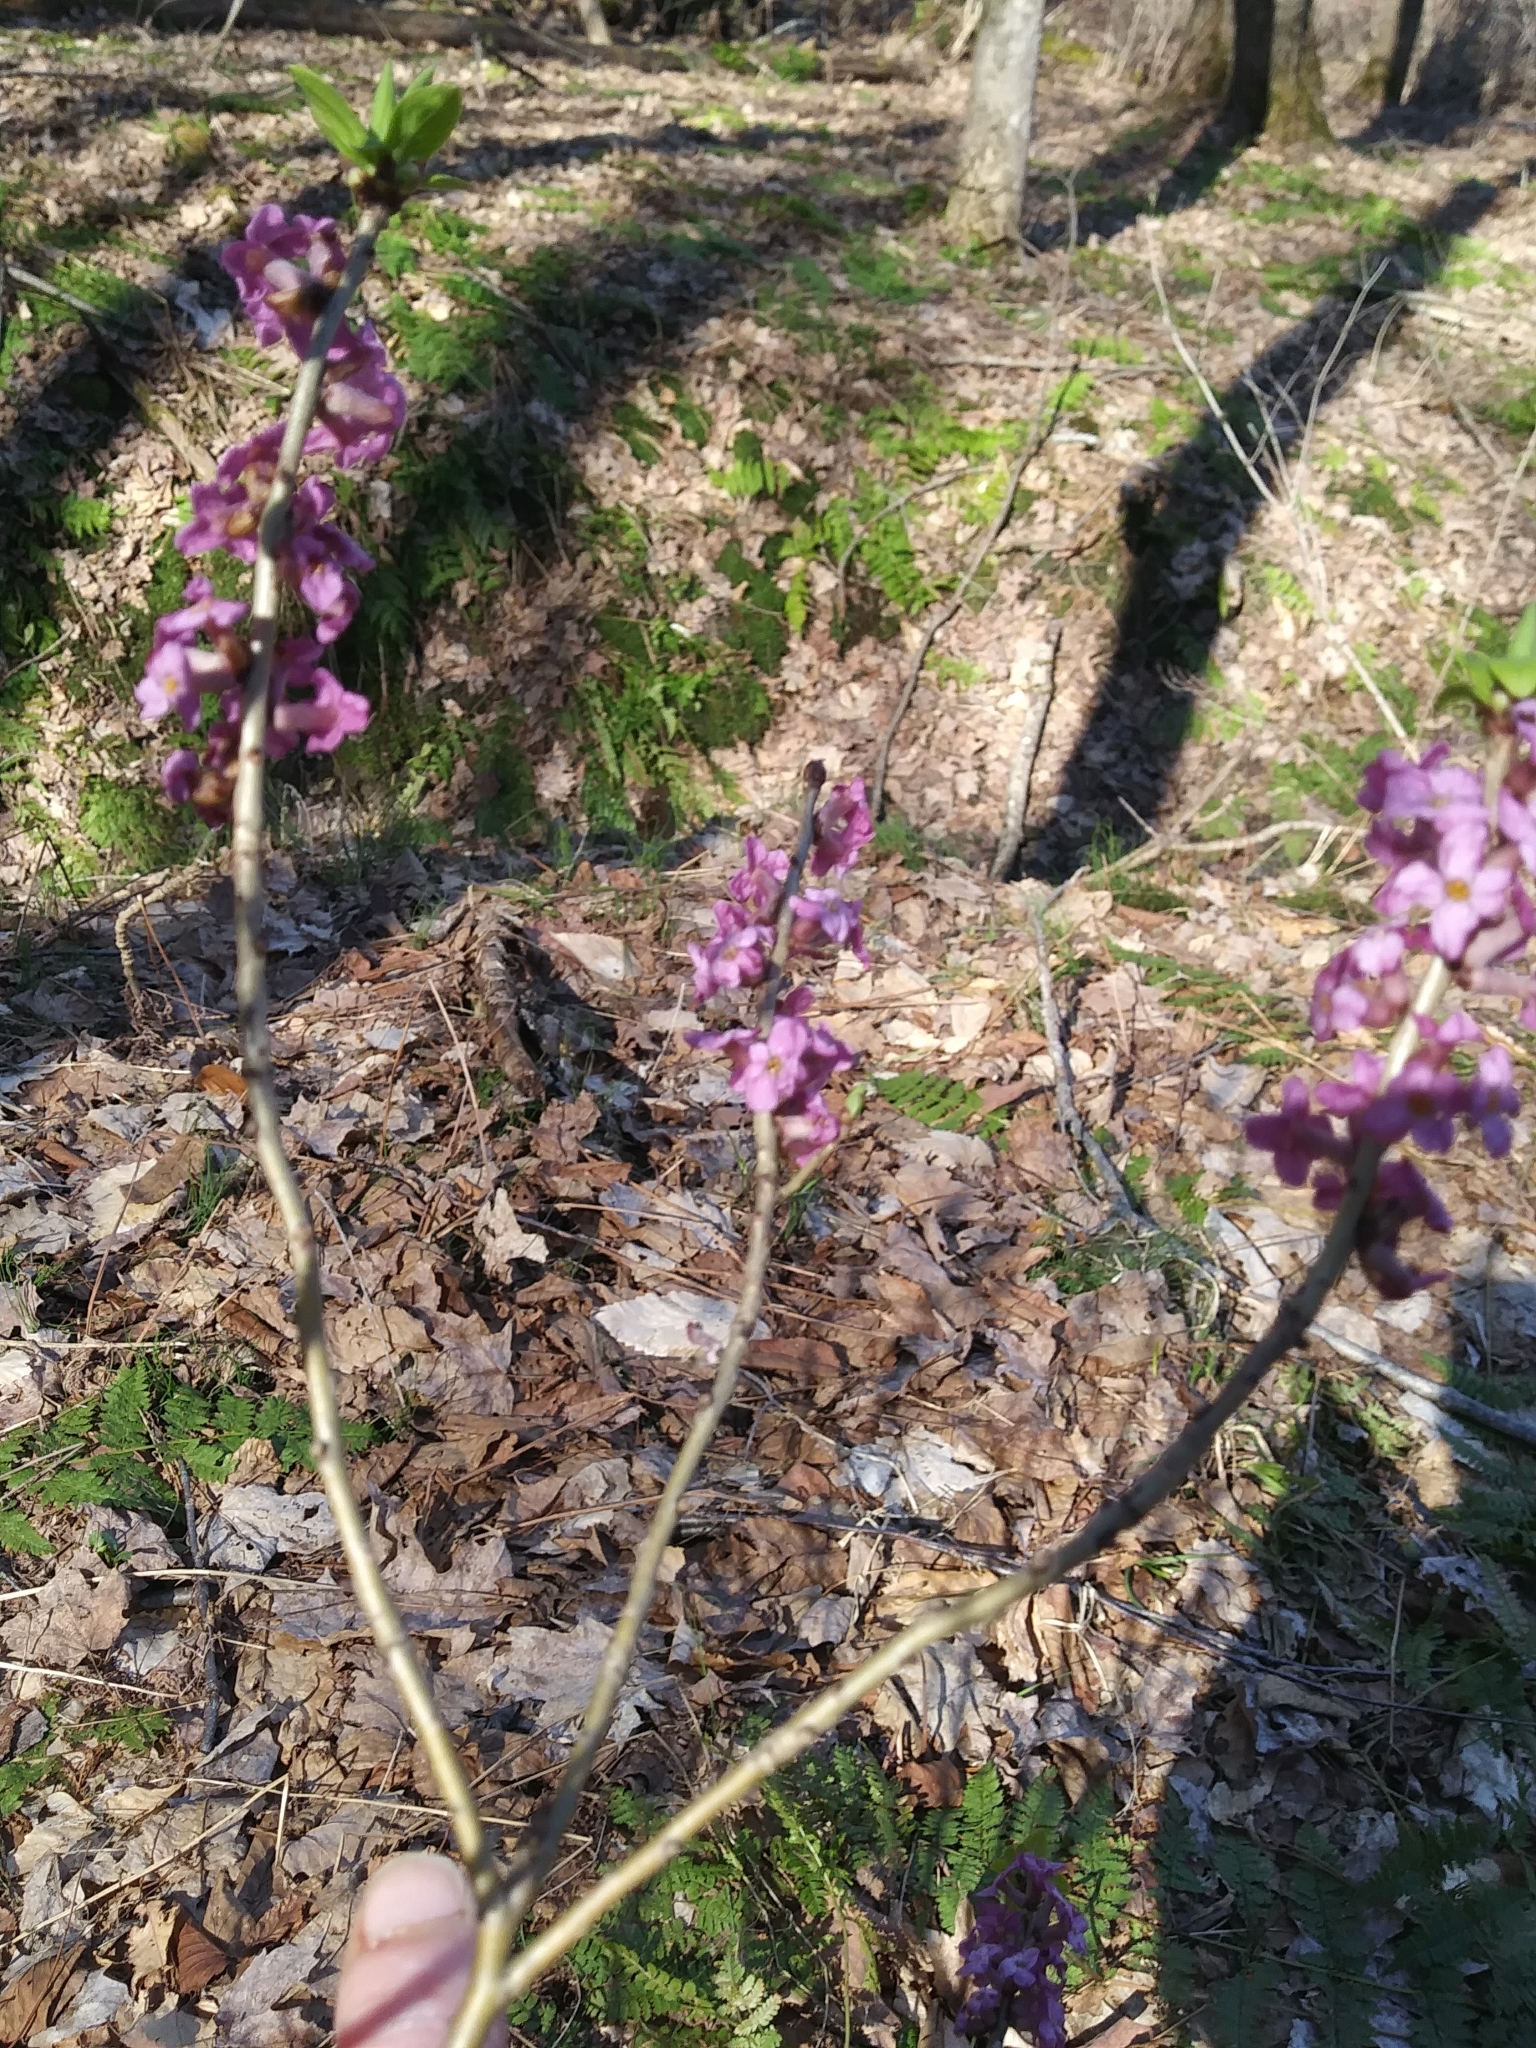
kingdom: Plantae
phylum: Tracheophyta
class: Magnoliopsida
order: Malvales
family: Thymelaeaceae
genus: Daphne
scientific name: Daphne mezereum
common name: Mezereon
